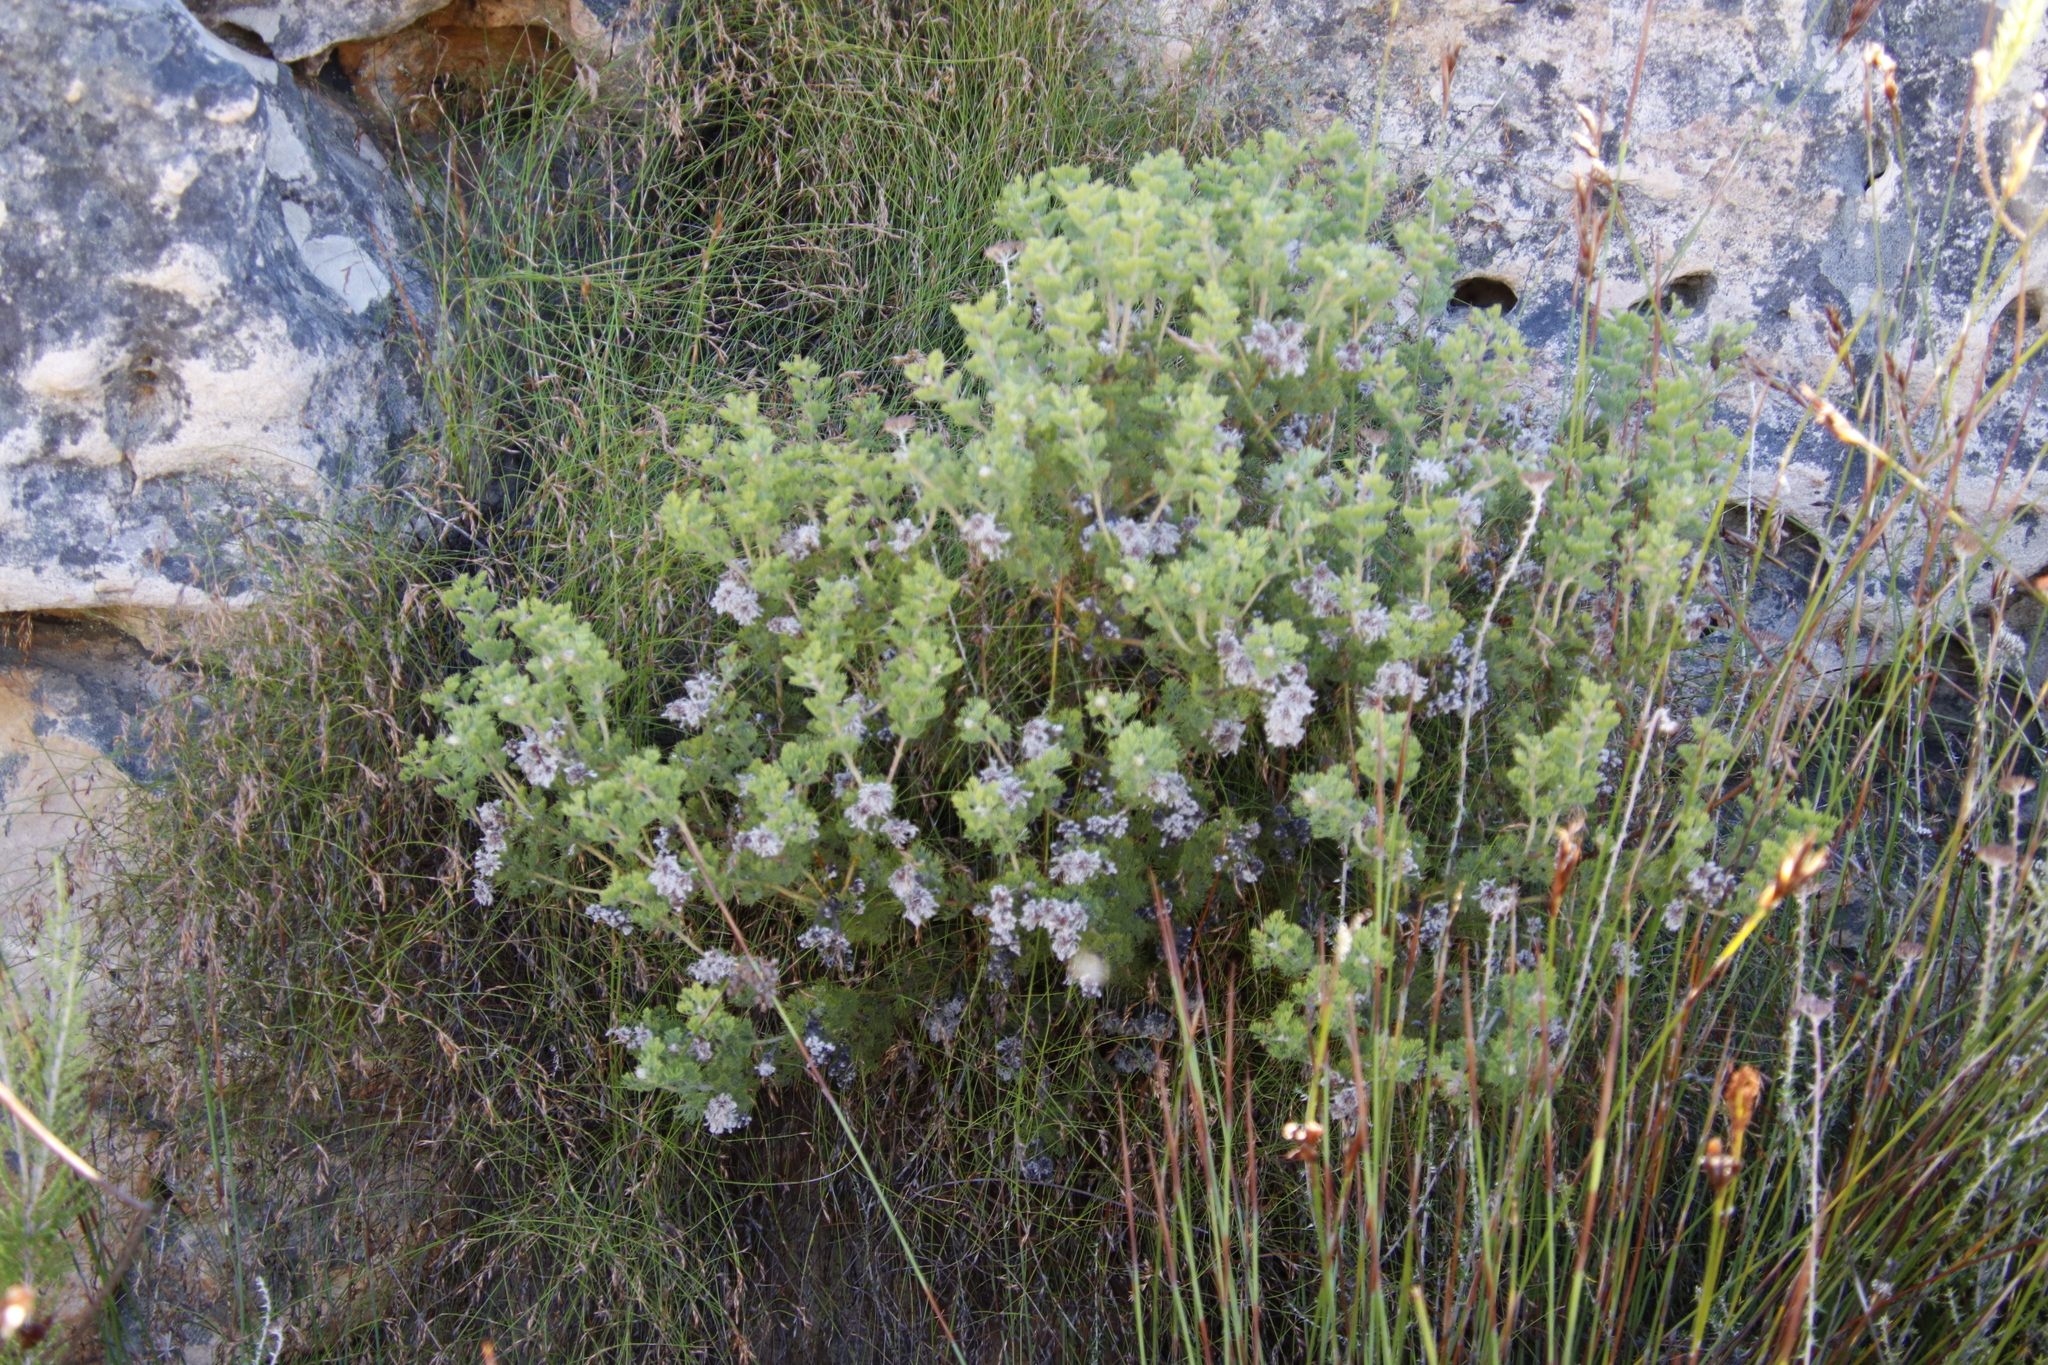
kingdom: Plantae
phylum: Tracheophyta
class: Magnoliopsida
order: Proteales
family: Proteaceae
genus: Serruria
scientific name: Serruria aitonii
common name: Marshmallow spiderhead
